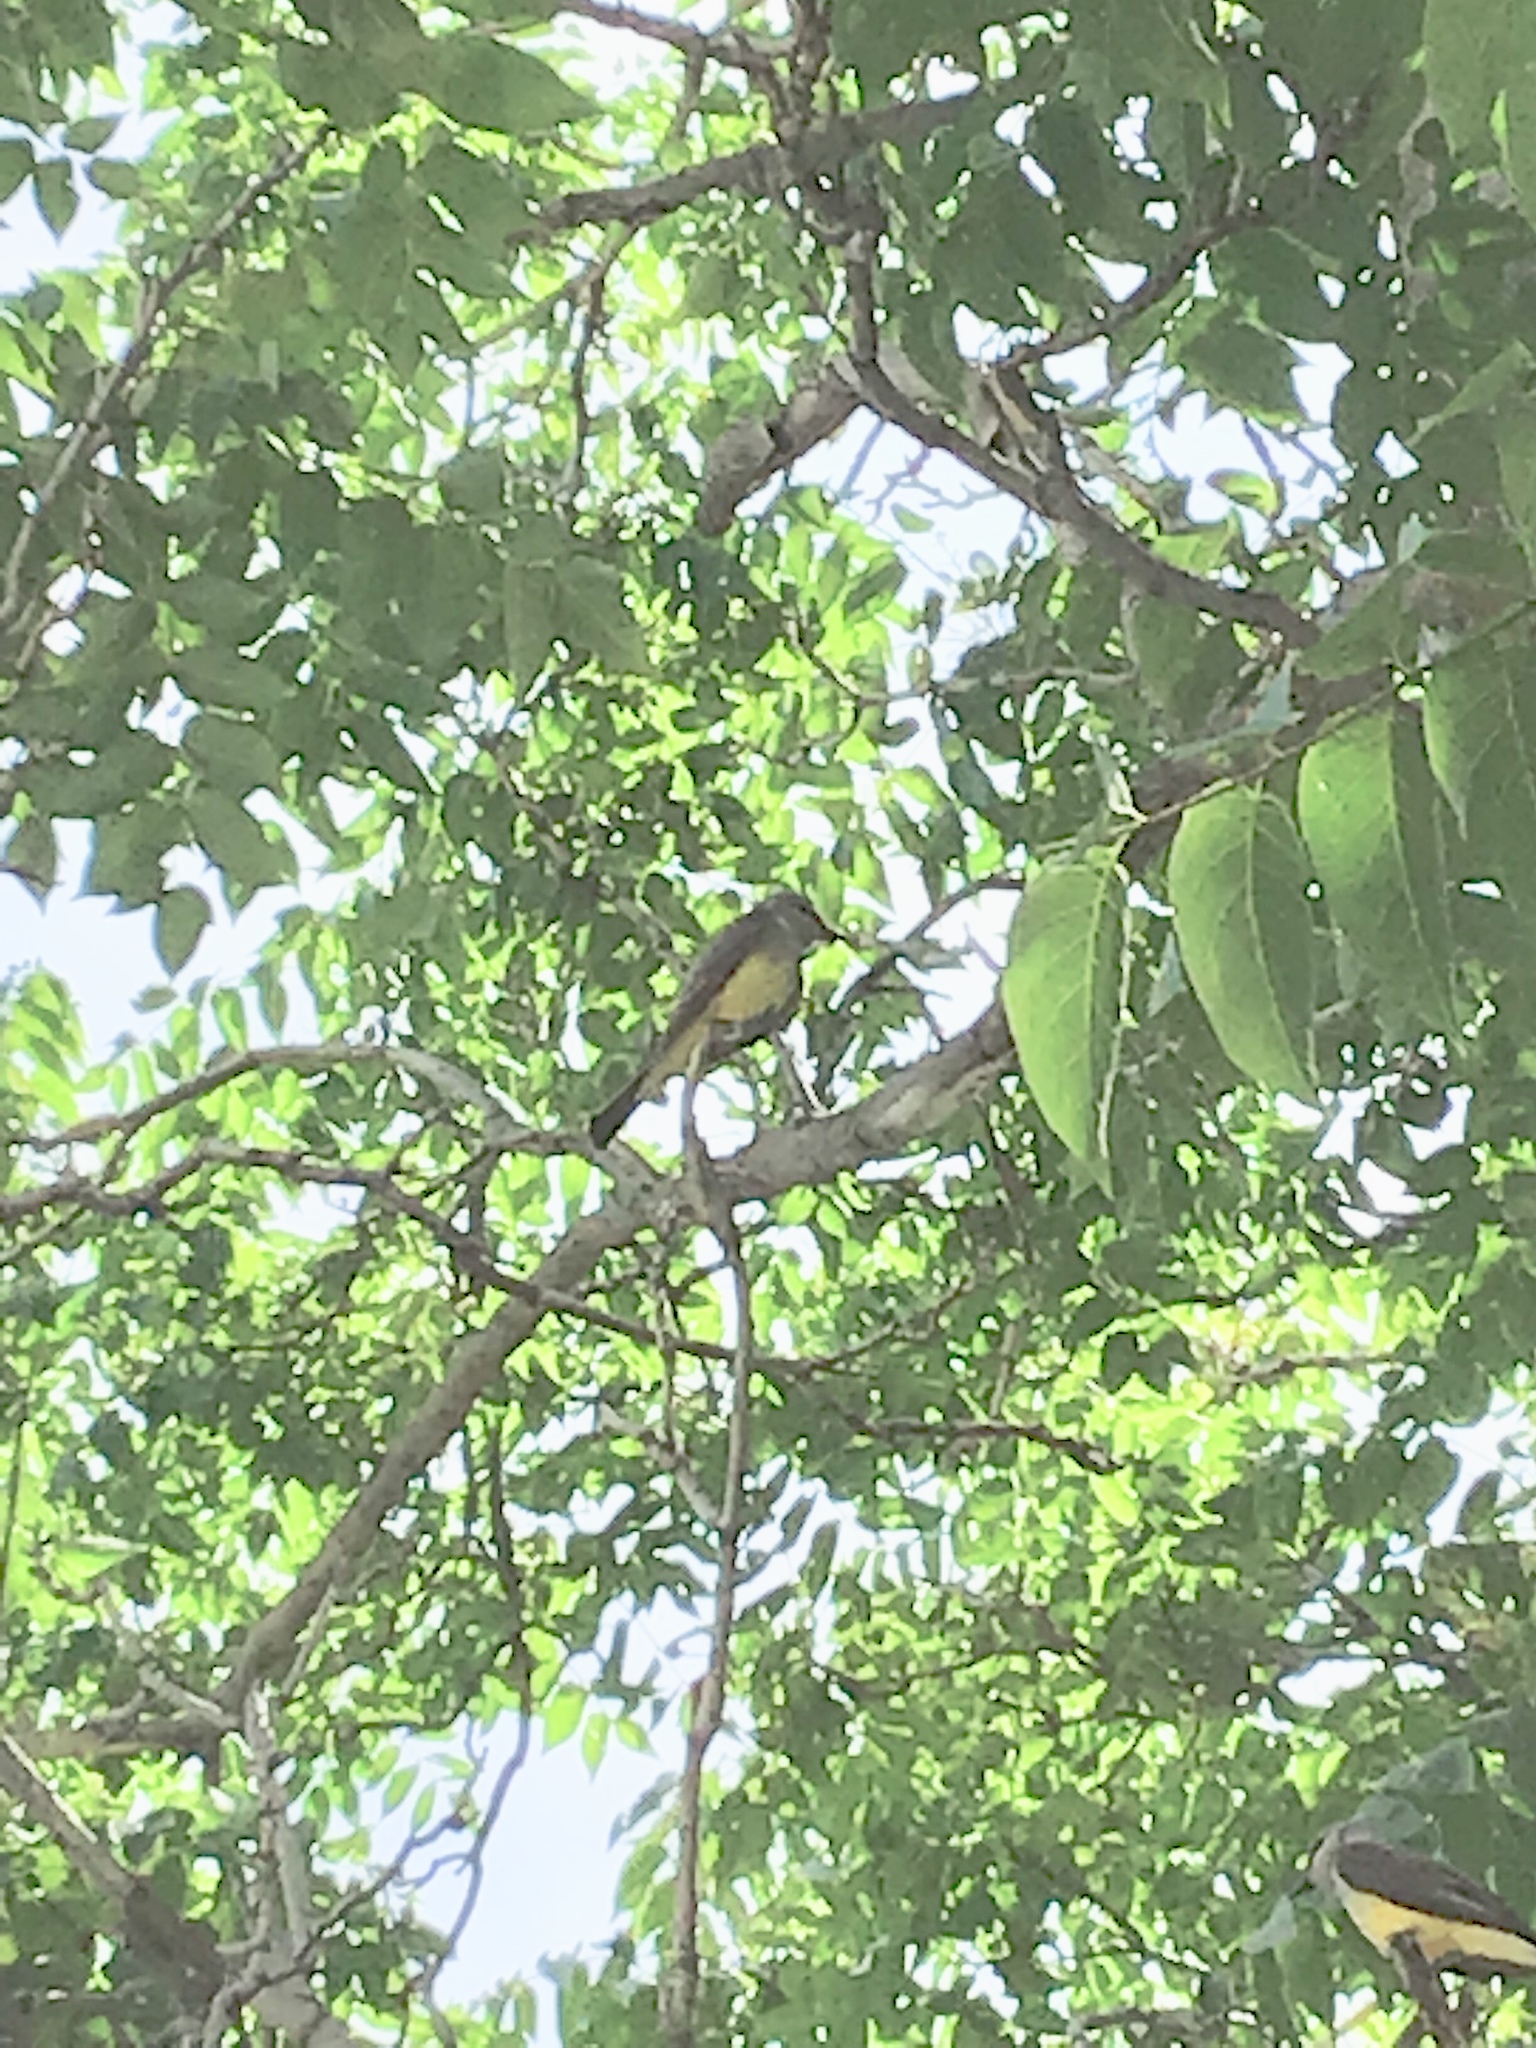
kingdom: Animalia
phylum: Chordata
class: Aves
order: Passeriformes
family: Tyrannidae
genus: Tyrannus
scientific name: Tyrannus verticalis
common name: Western kingbird
